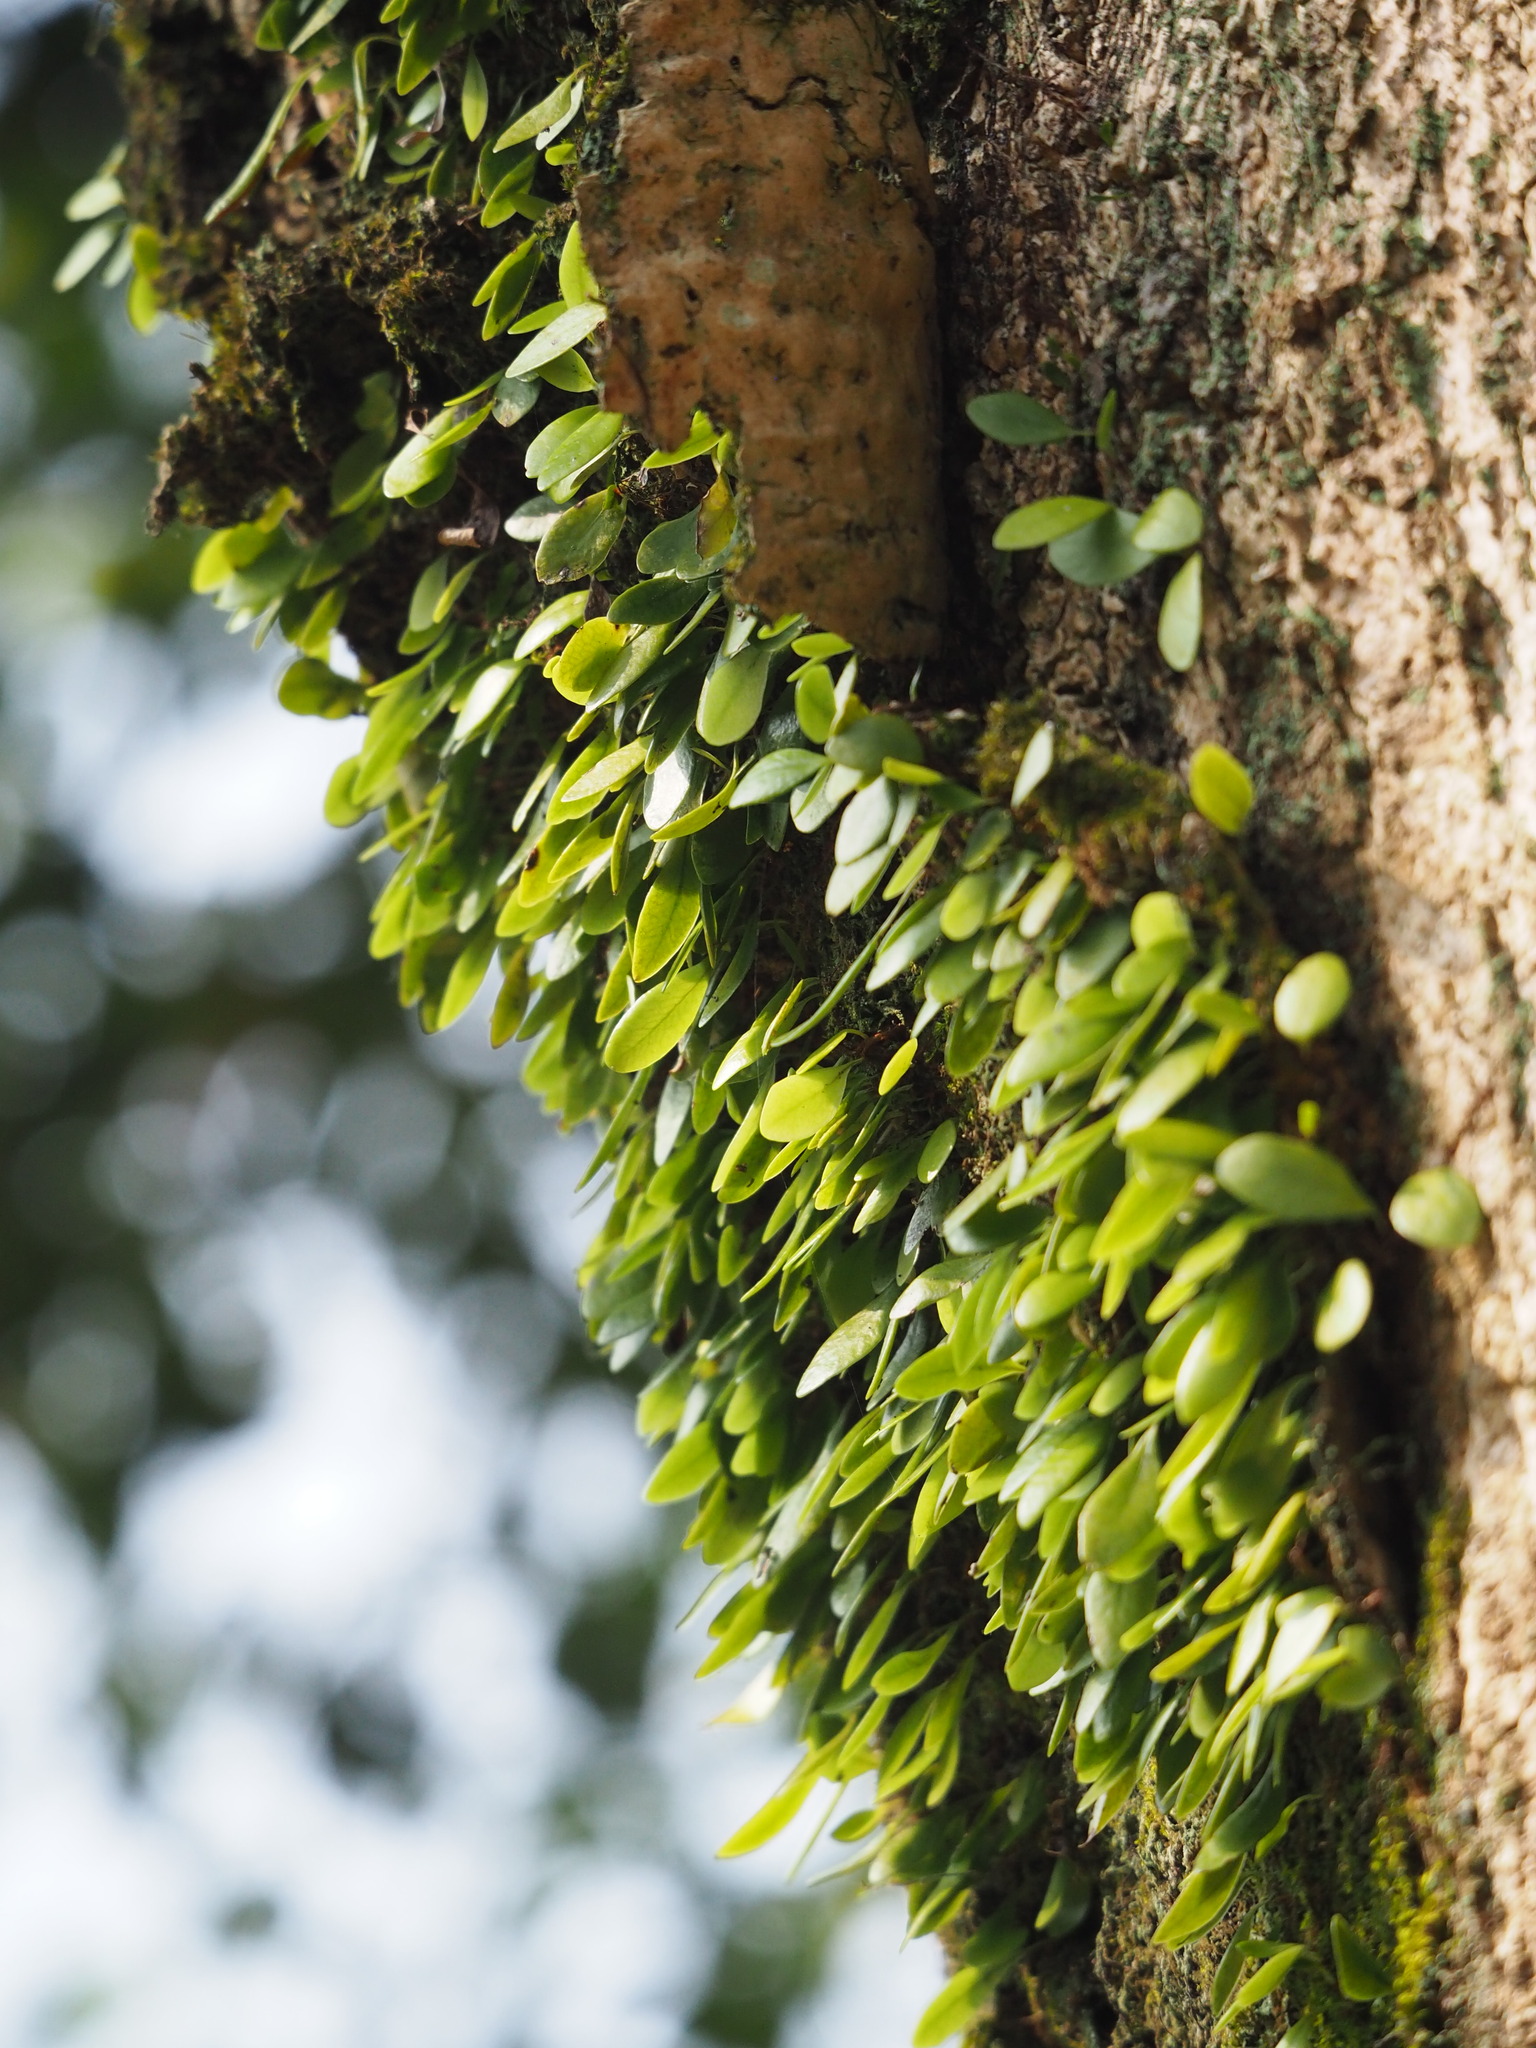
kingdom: Plantae
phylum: Tracheophyta
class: Polypodiopsida
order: Polypodiales
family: Polypodiaceae
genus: Lepisorus
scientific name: Lepisorus microphyllus
